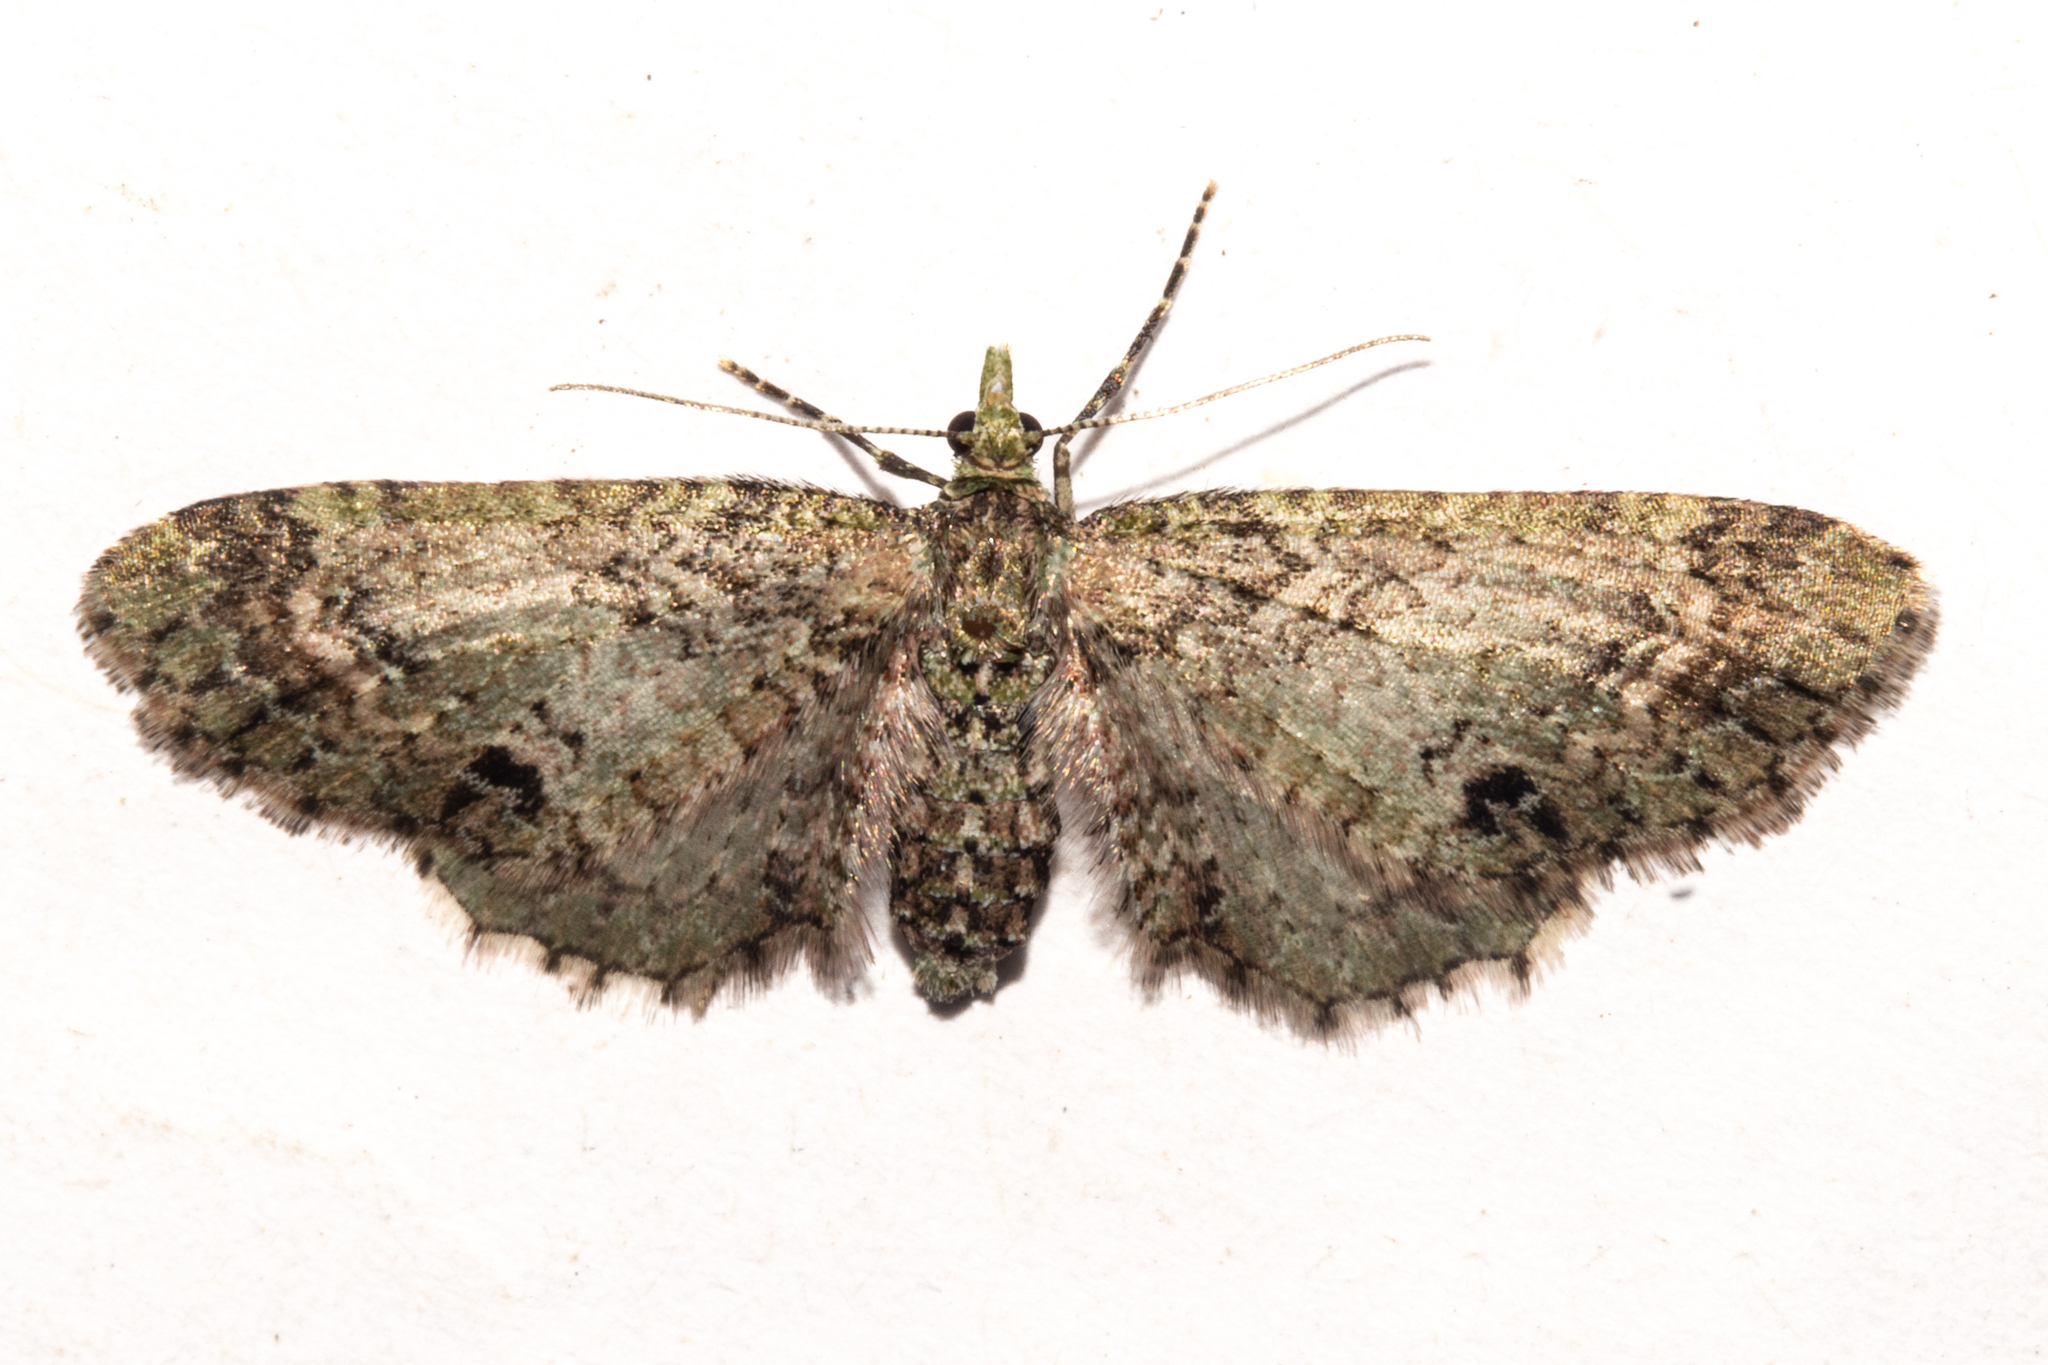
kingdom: Animalia
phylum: Arthropoda
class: Insecta
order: Lepidoptera
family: Geometridae
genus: Pasiphila
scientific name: Pasiphila cotinaea
